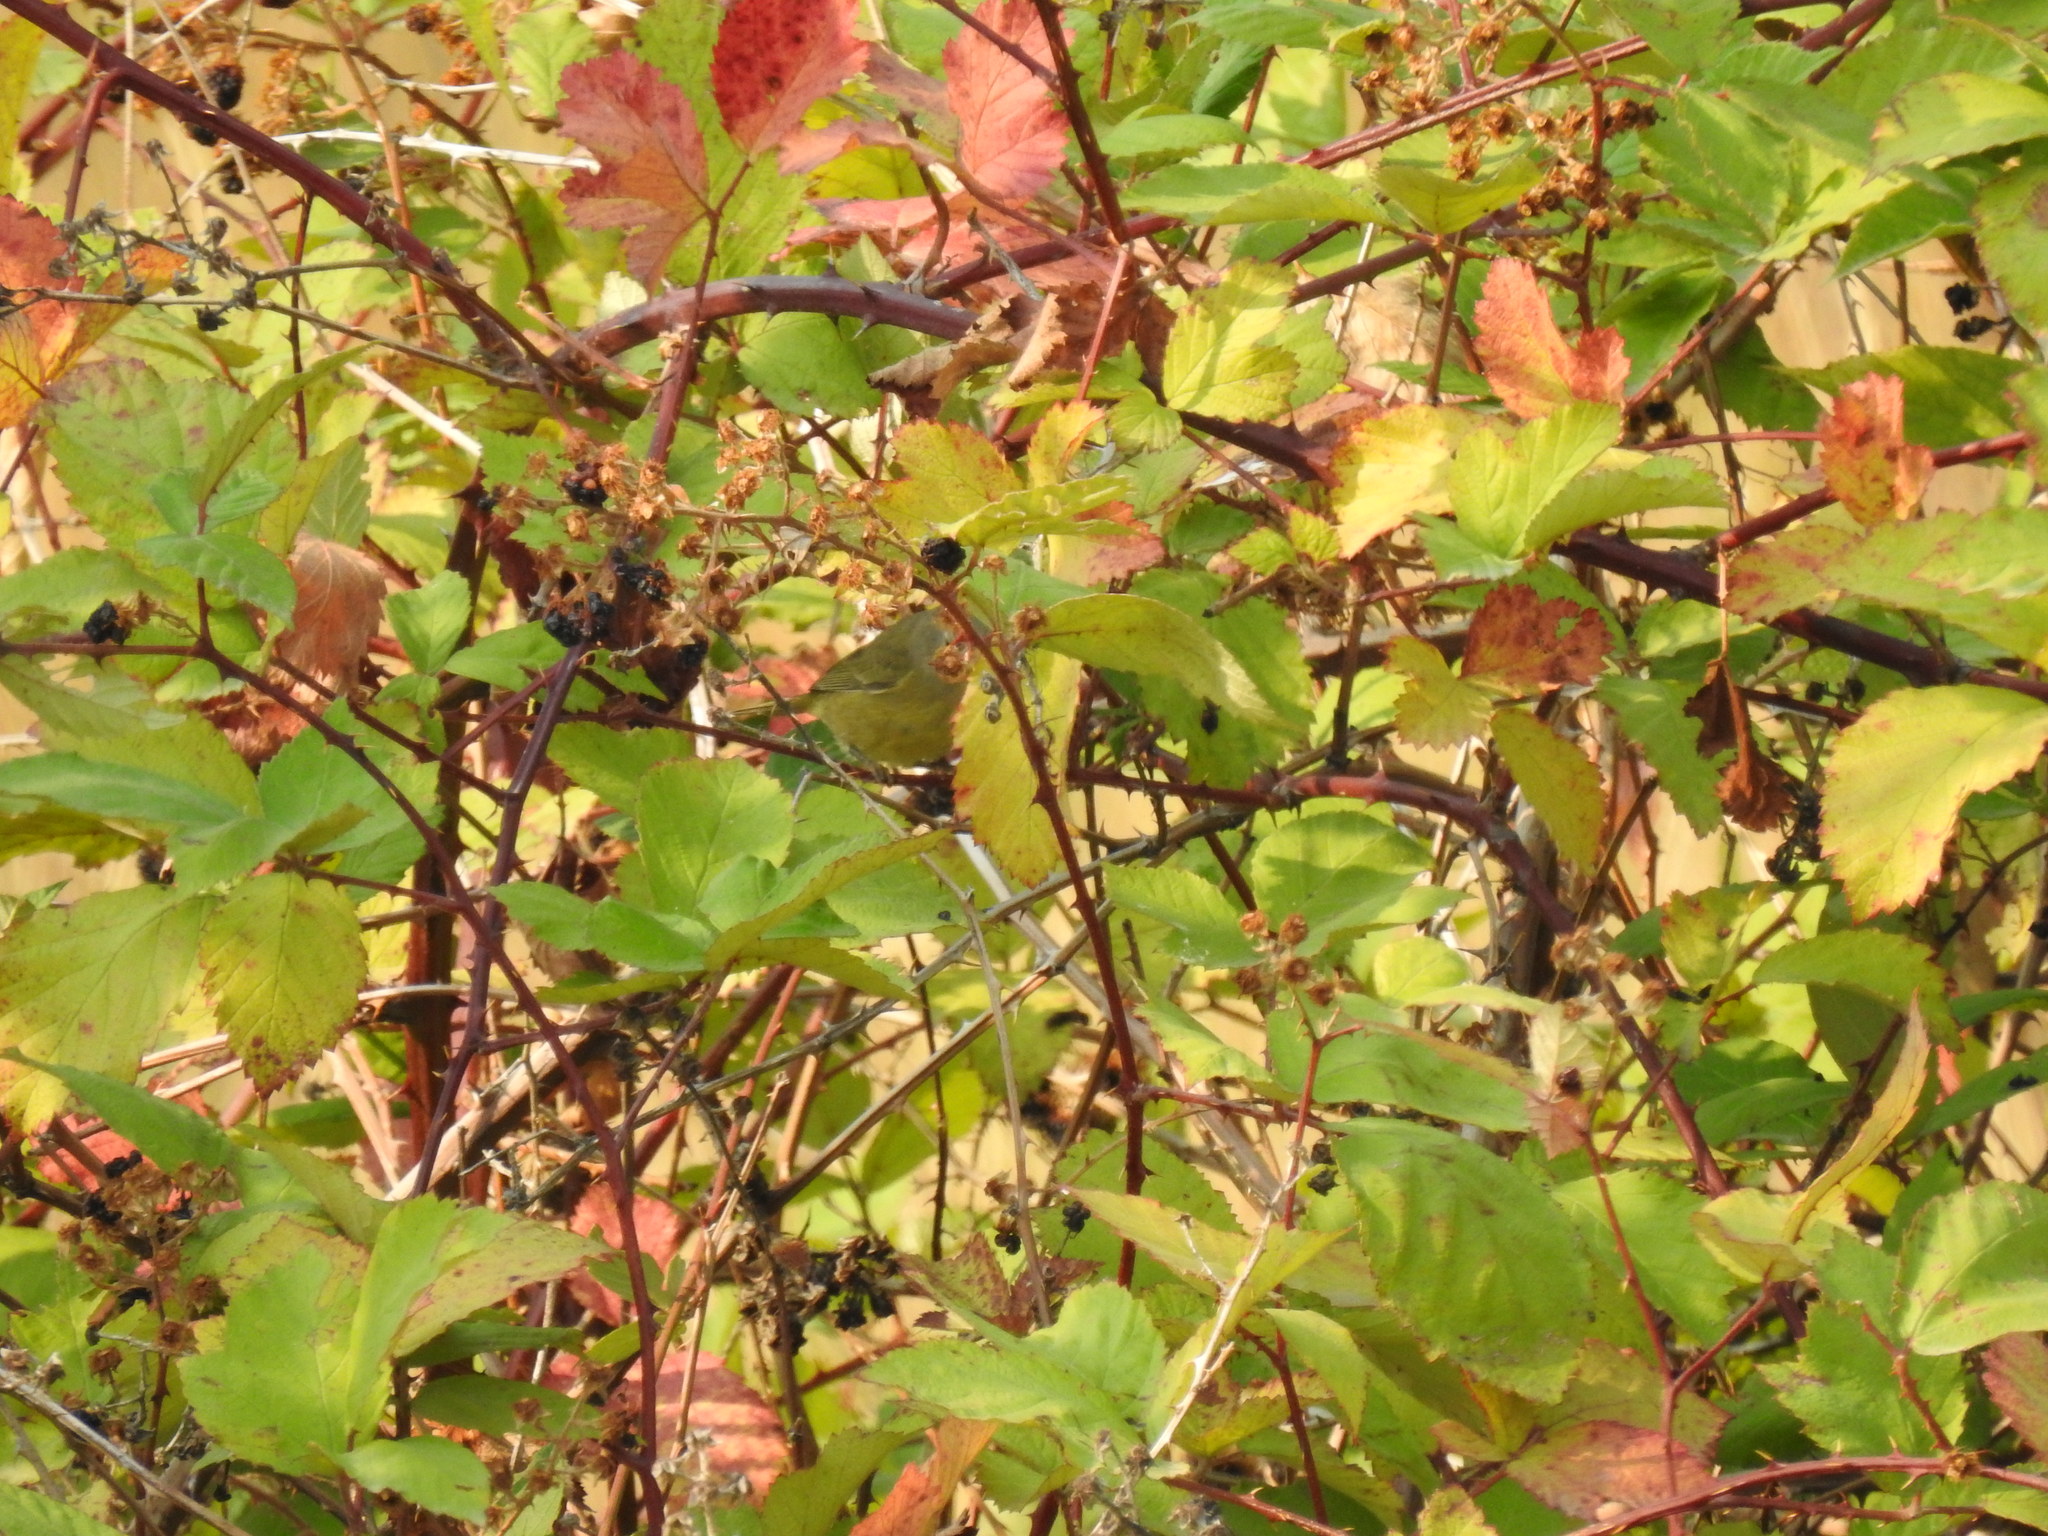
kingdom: Animalia
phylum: Chordata
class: Aves
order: Passeriformes
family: Parulidae
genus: Leiothlypis
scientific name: Leiothlypis celata
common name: Orange-crowned warbler
